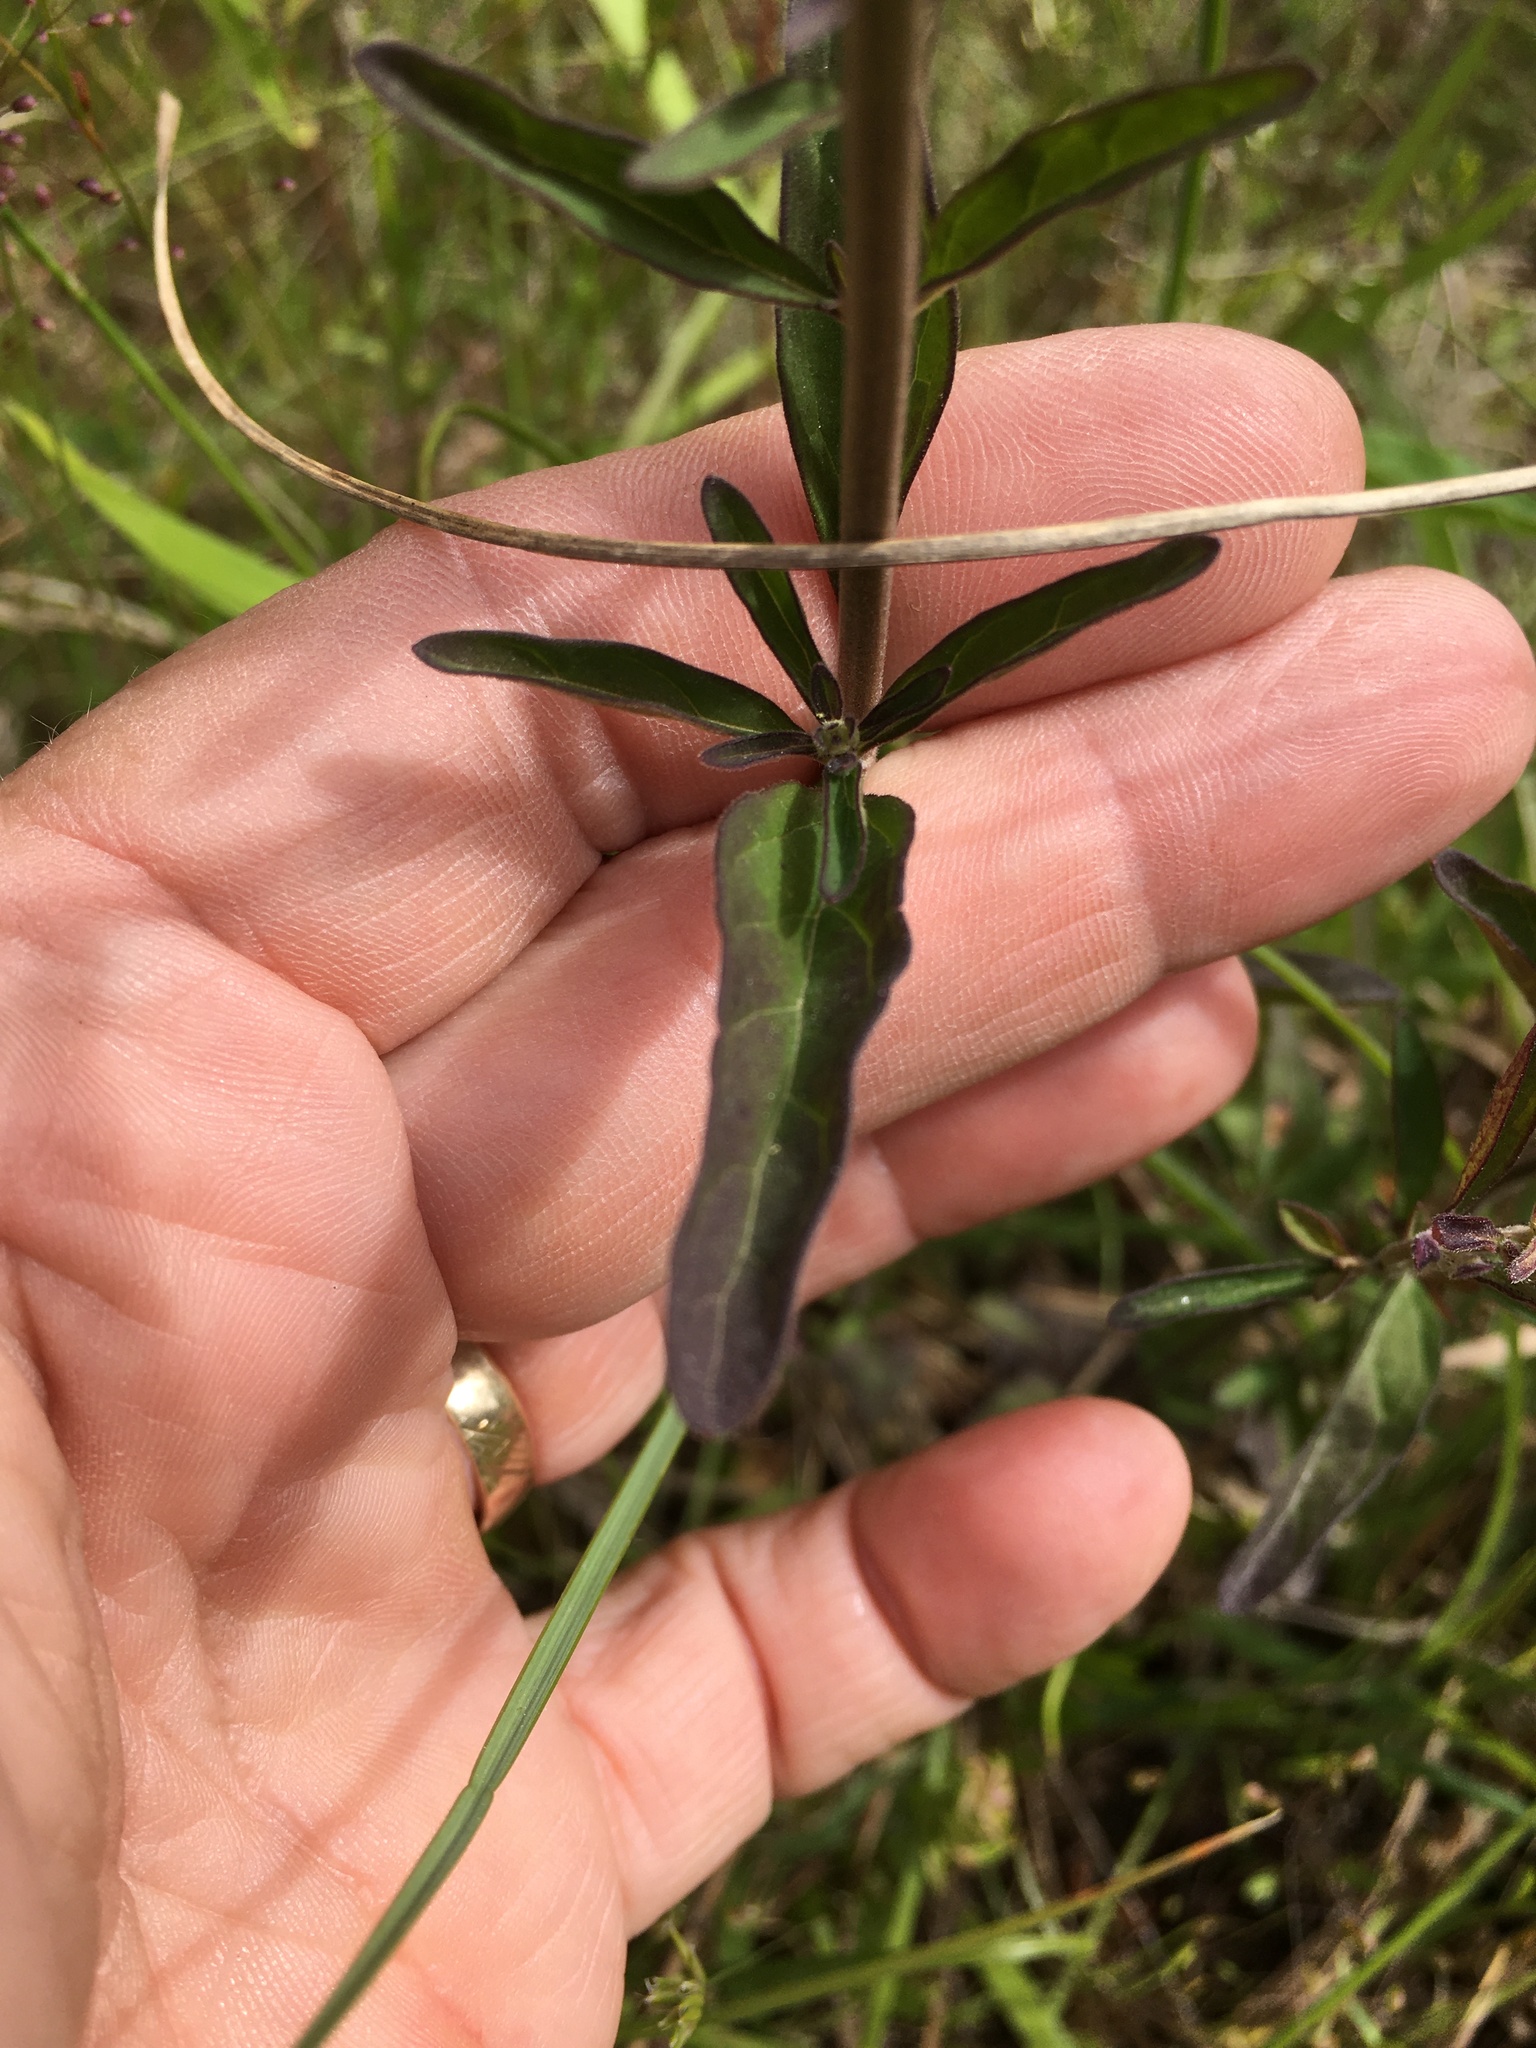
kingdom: Plantae
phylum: Tracheophyta
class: Magnoliopsida
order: Lamiales
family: Lamiaceae
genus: Scutellaria
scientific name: Scutellaria integrifolia
